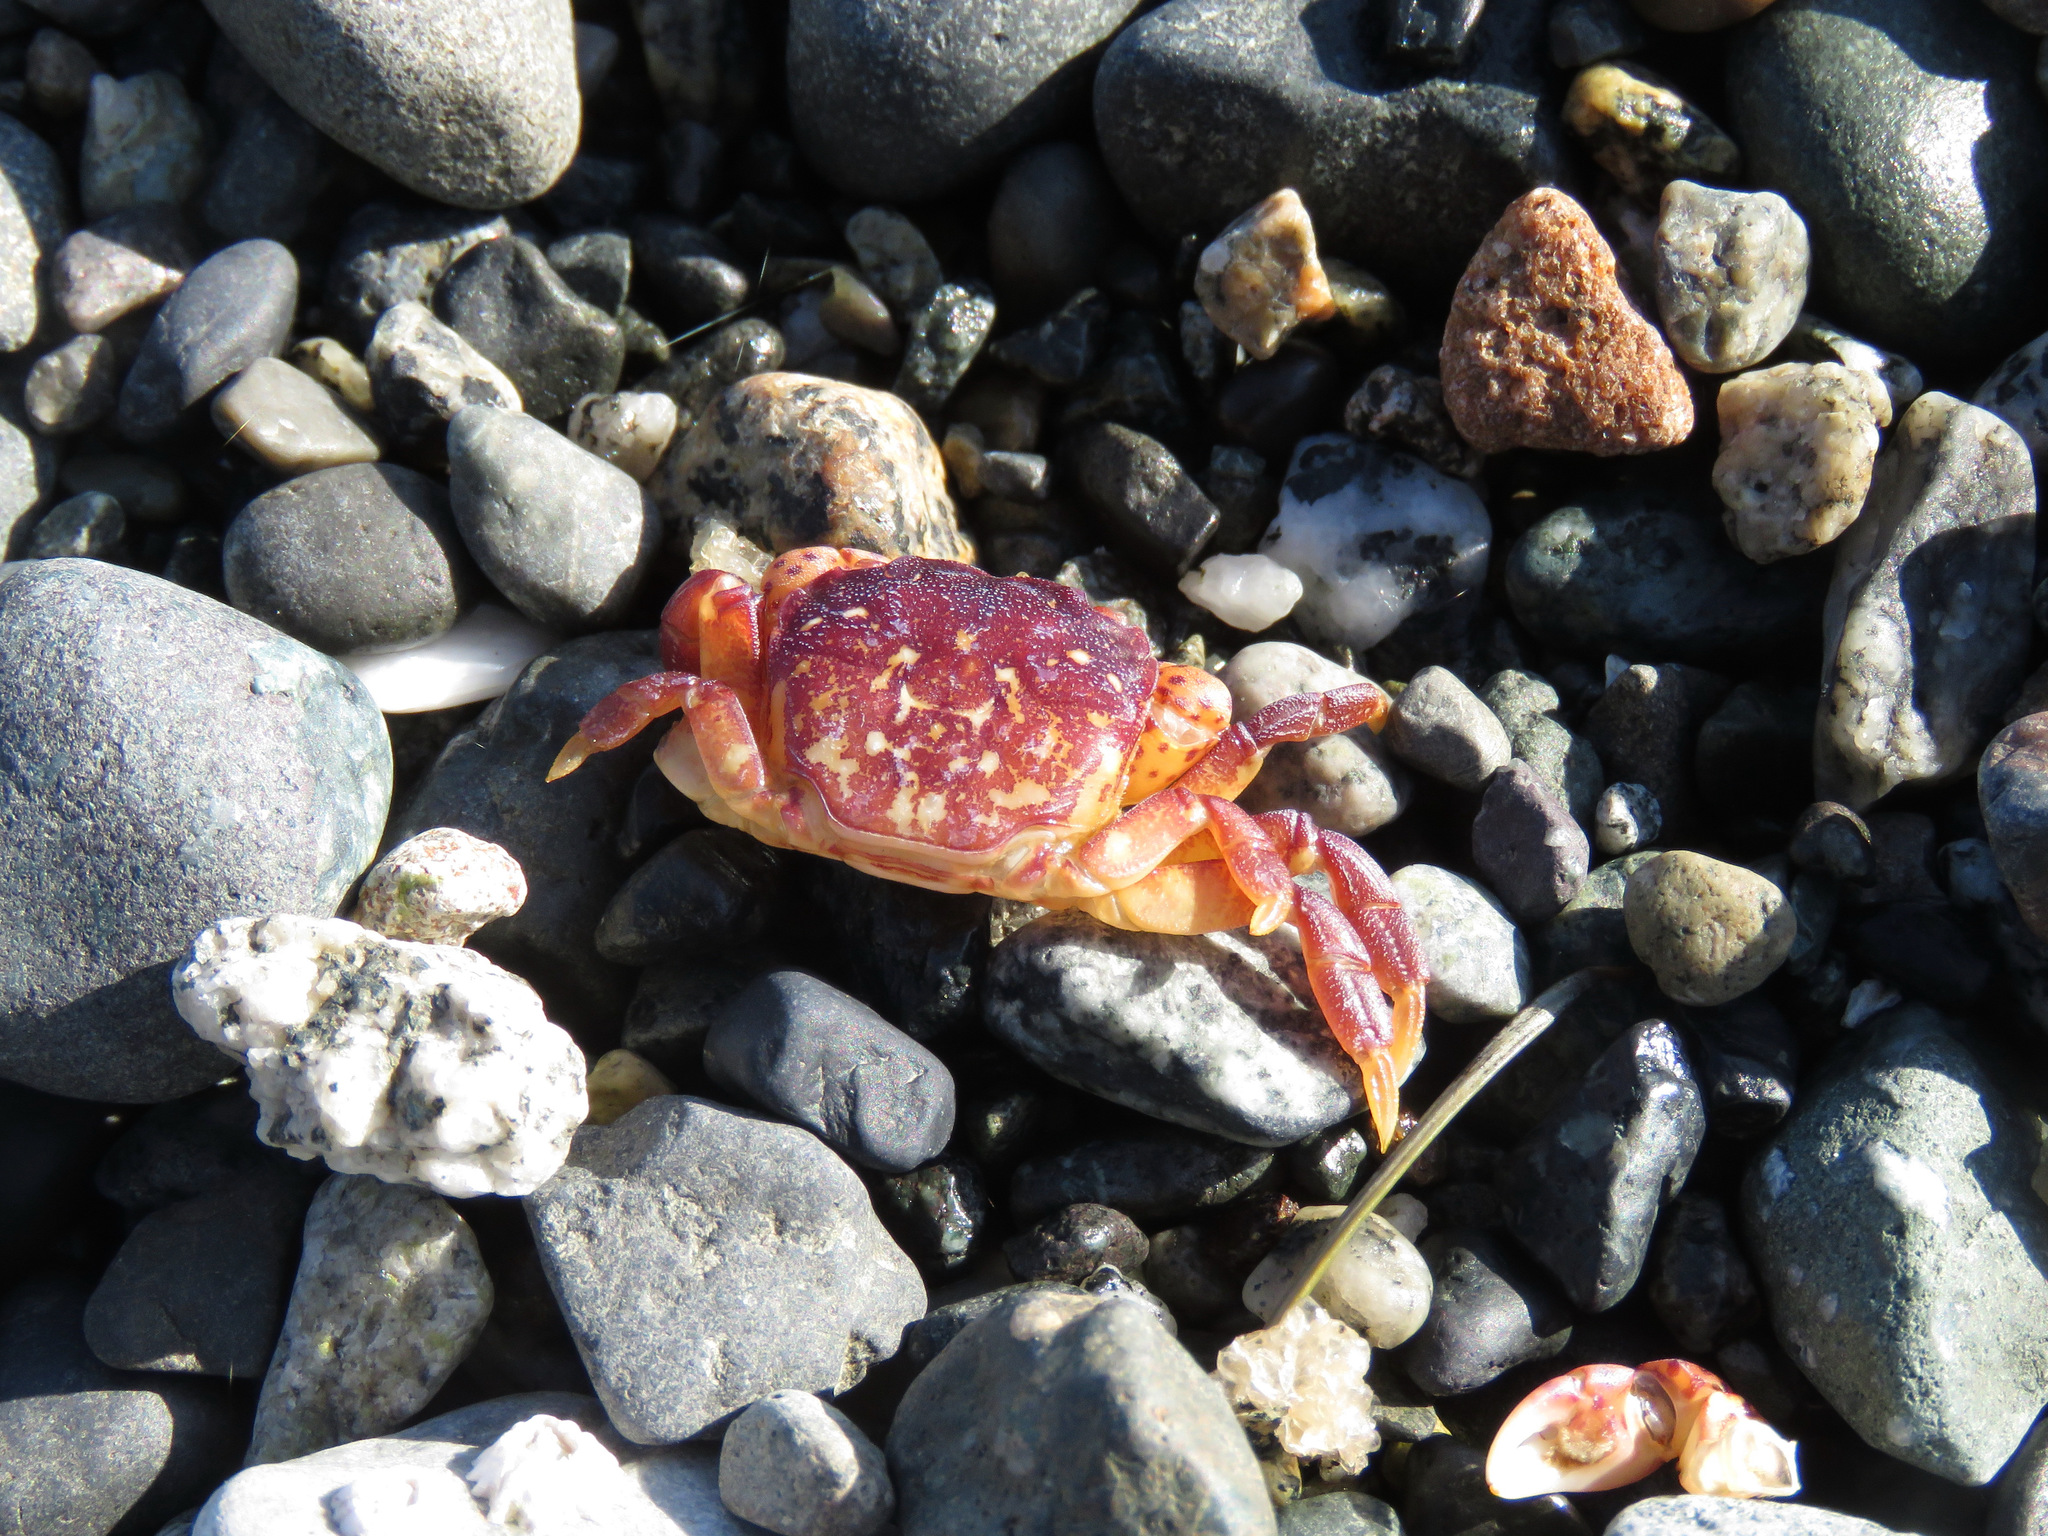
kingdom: Animalia
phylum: Arthropoda
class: Malacostraca
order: Decapoda
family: Varunidae
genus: Hemigrapsus
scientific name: Hemigrapsus nudus
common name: Purple shore crab
